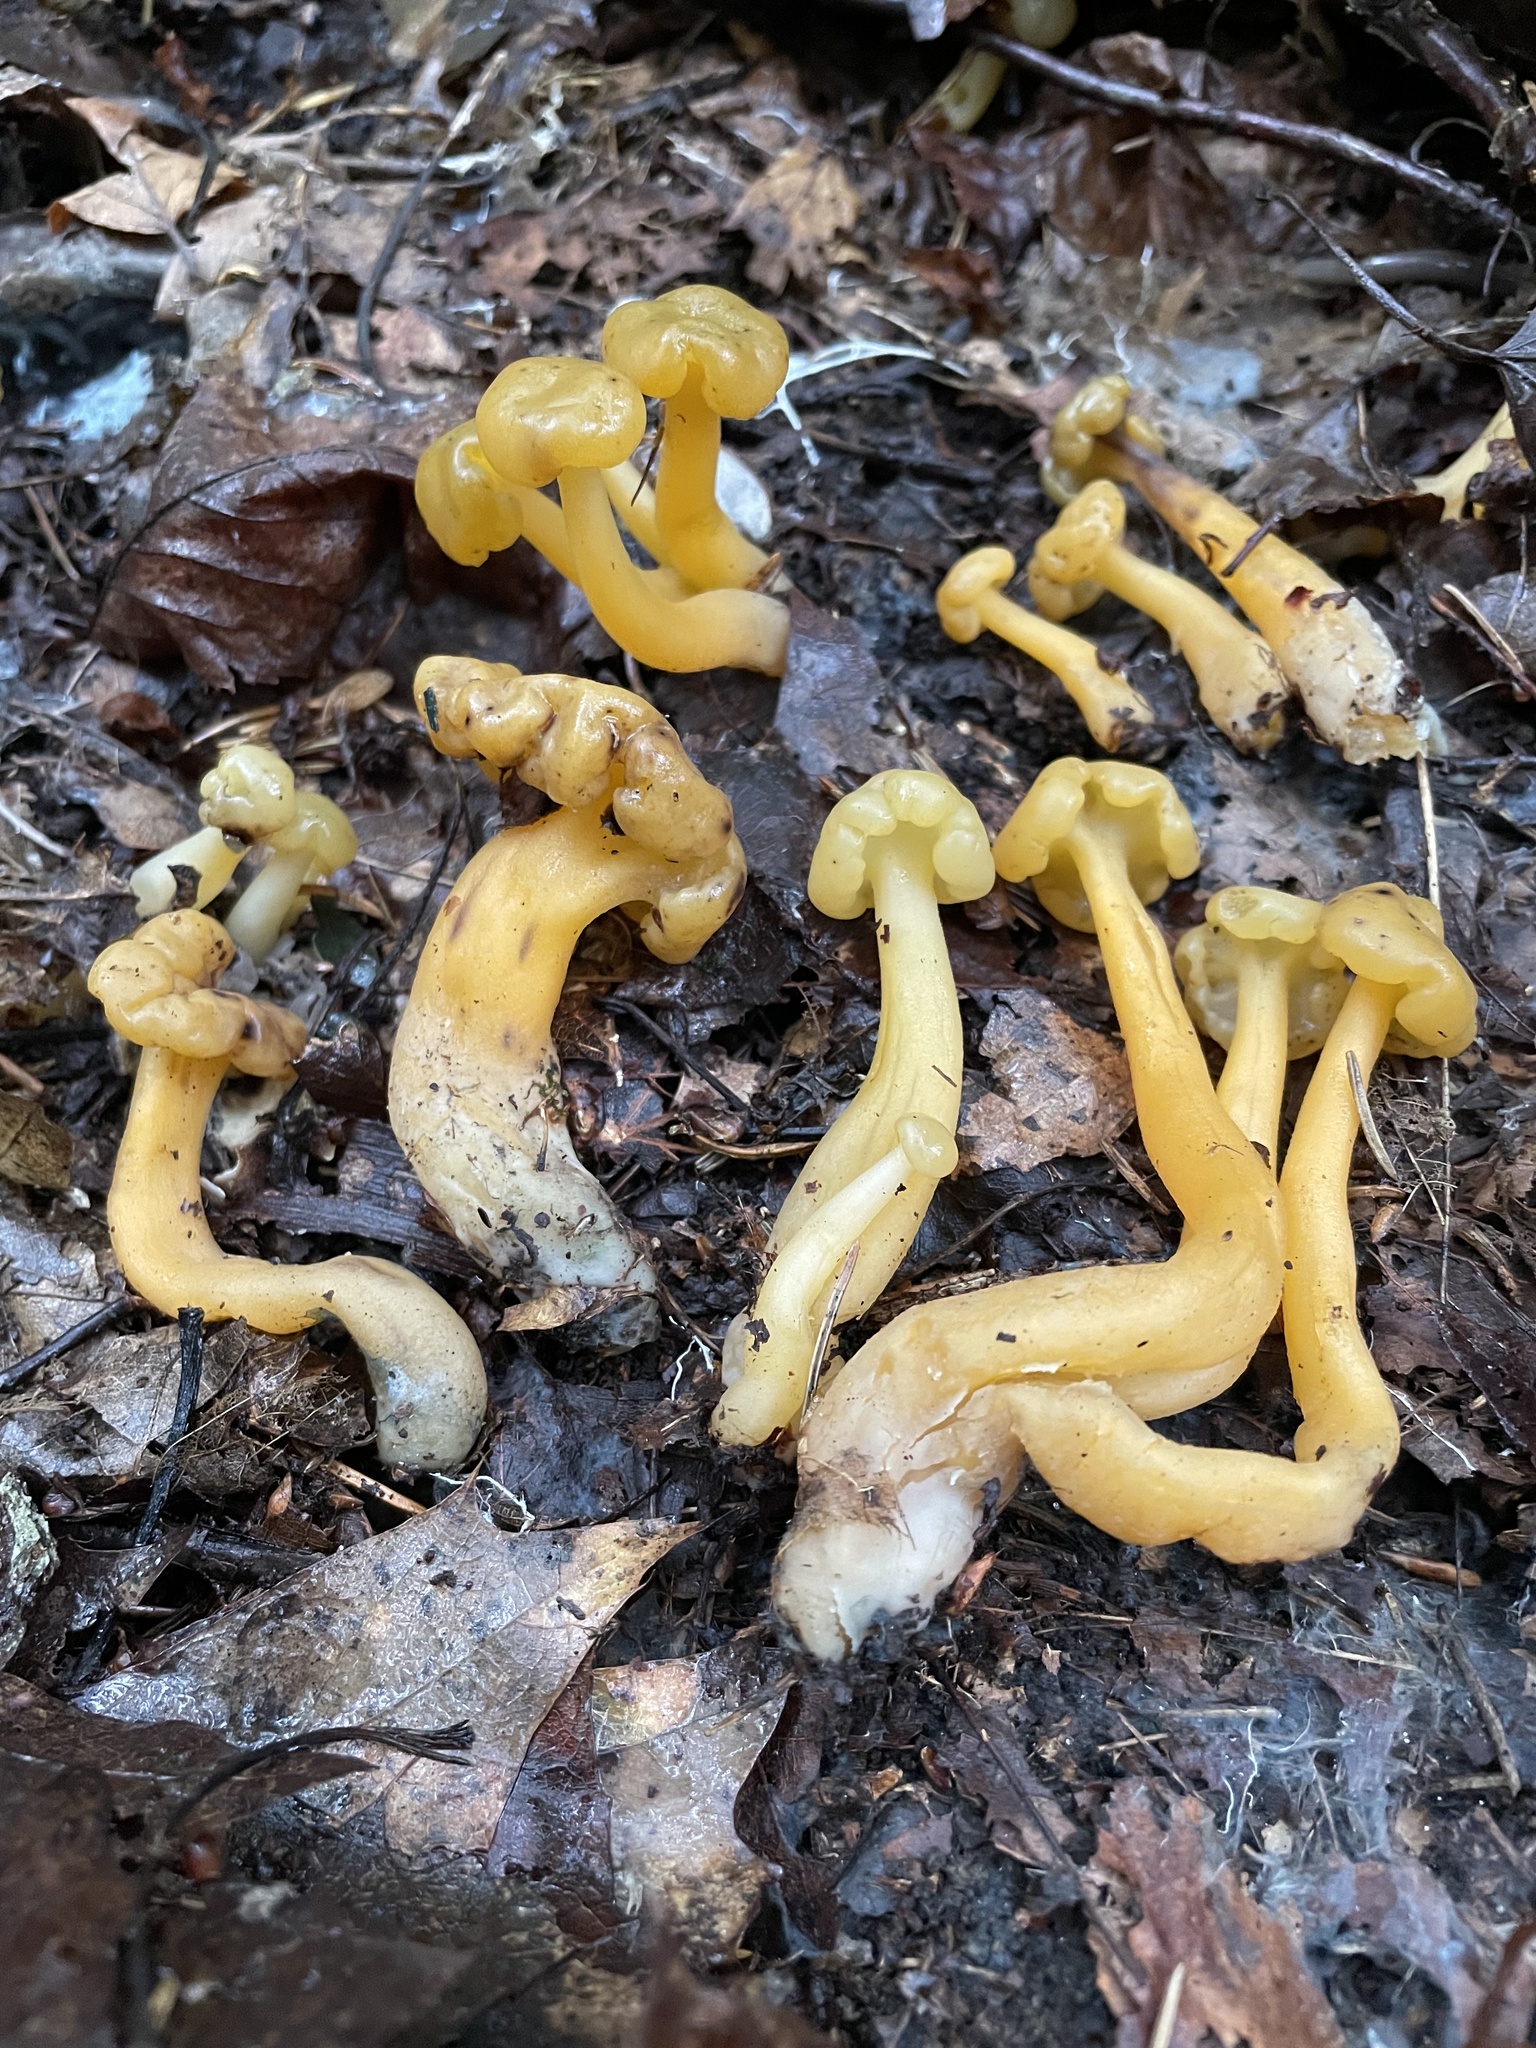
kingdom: Fungi
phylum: Ascomycota
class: Leotiomycetes
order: Leotiales
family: Leotiaceae
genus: Leotia
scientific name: Leotia lubrica
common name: Jellybaby
